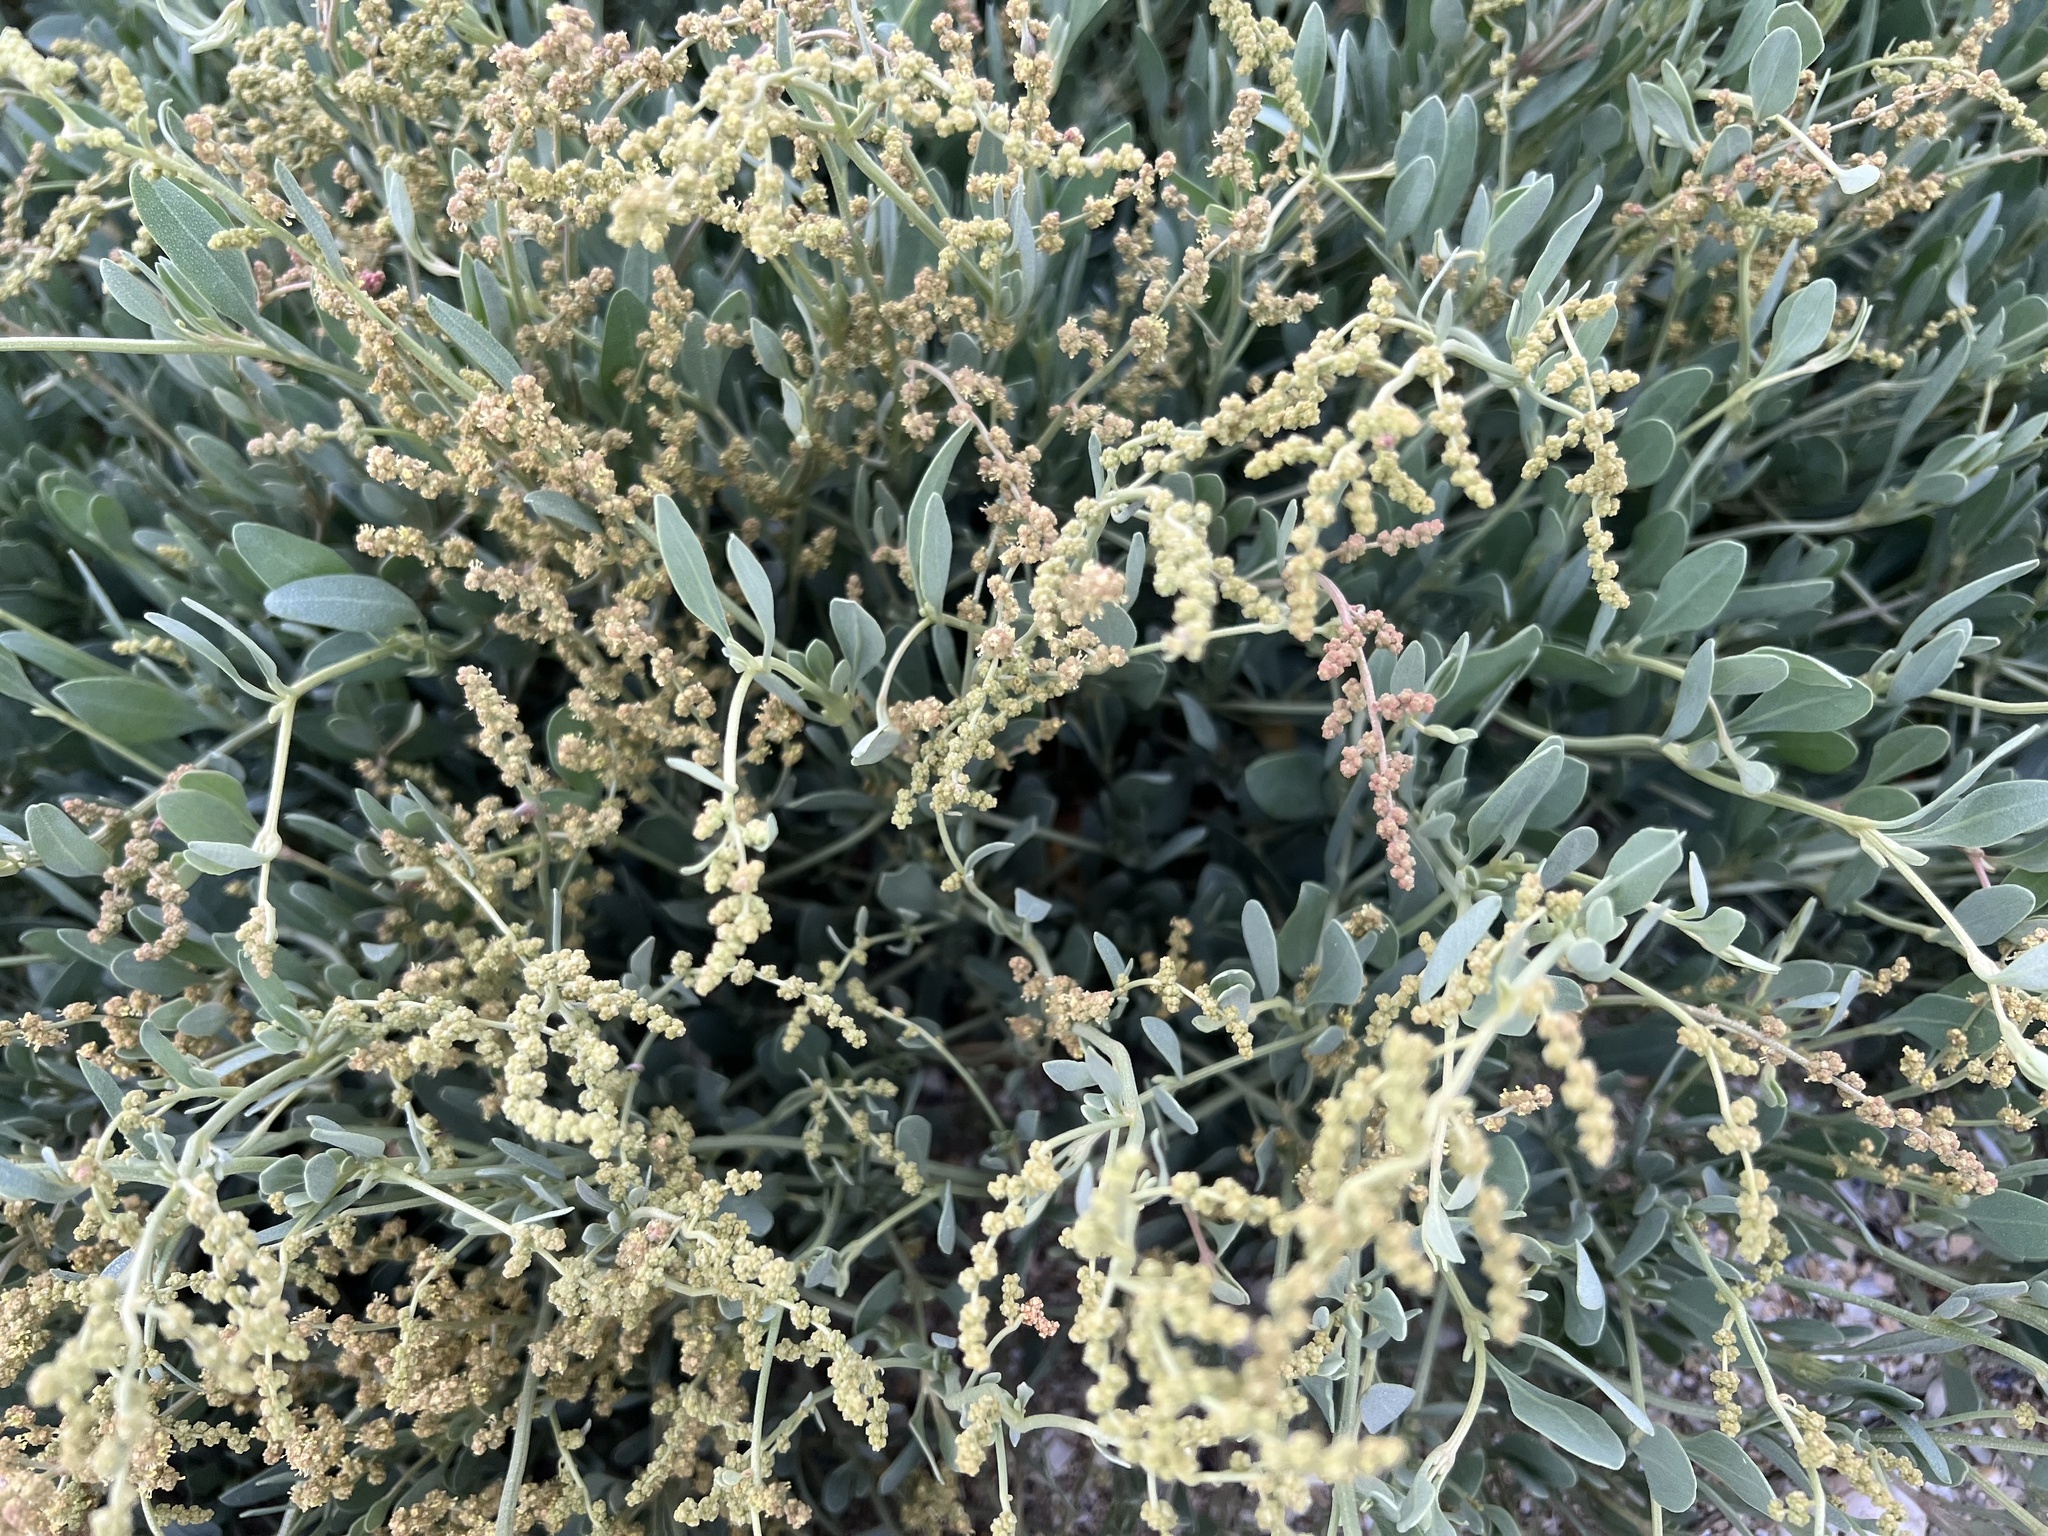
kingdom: Plantae
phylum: Tracheophyta
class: Magnoliopsida
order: Caryophyllales
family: Amaranthaceae
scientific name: Amaranthaceae
